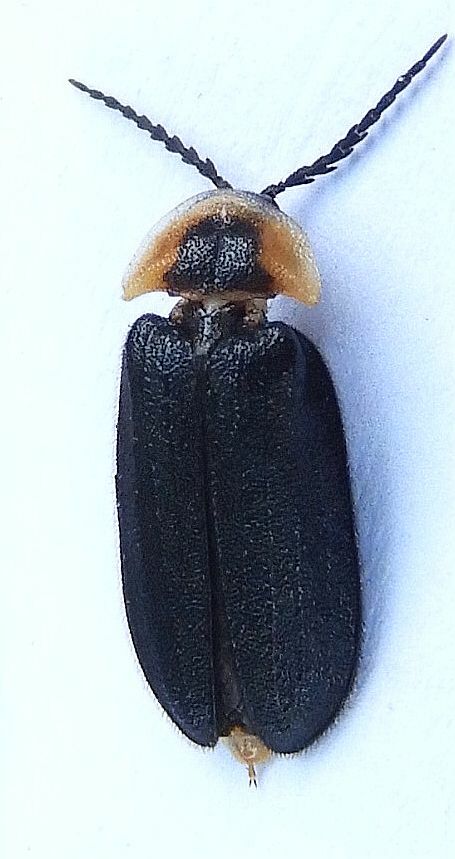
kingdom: Animalia
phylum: Arthropoda
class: Insecta
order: Coleoptera
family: Lampyridae
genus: Pollaclasis
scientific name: Pollaclasis bifaria
